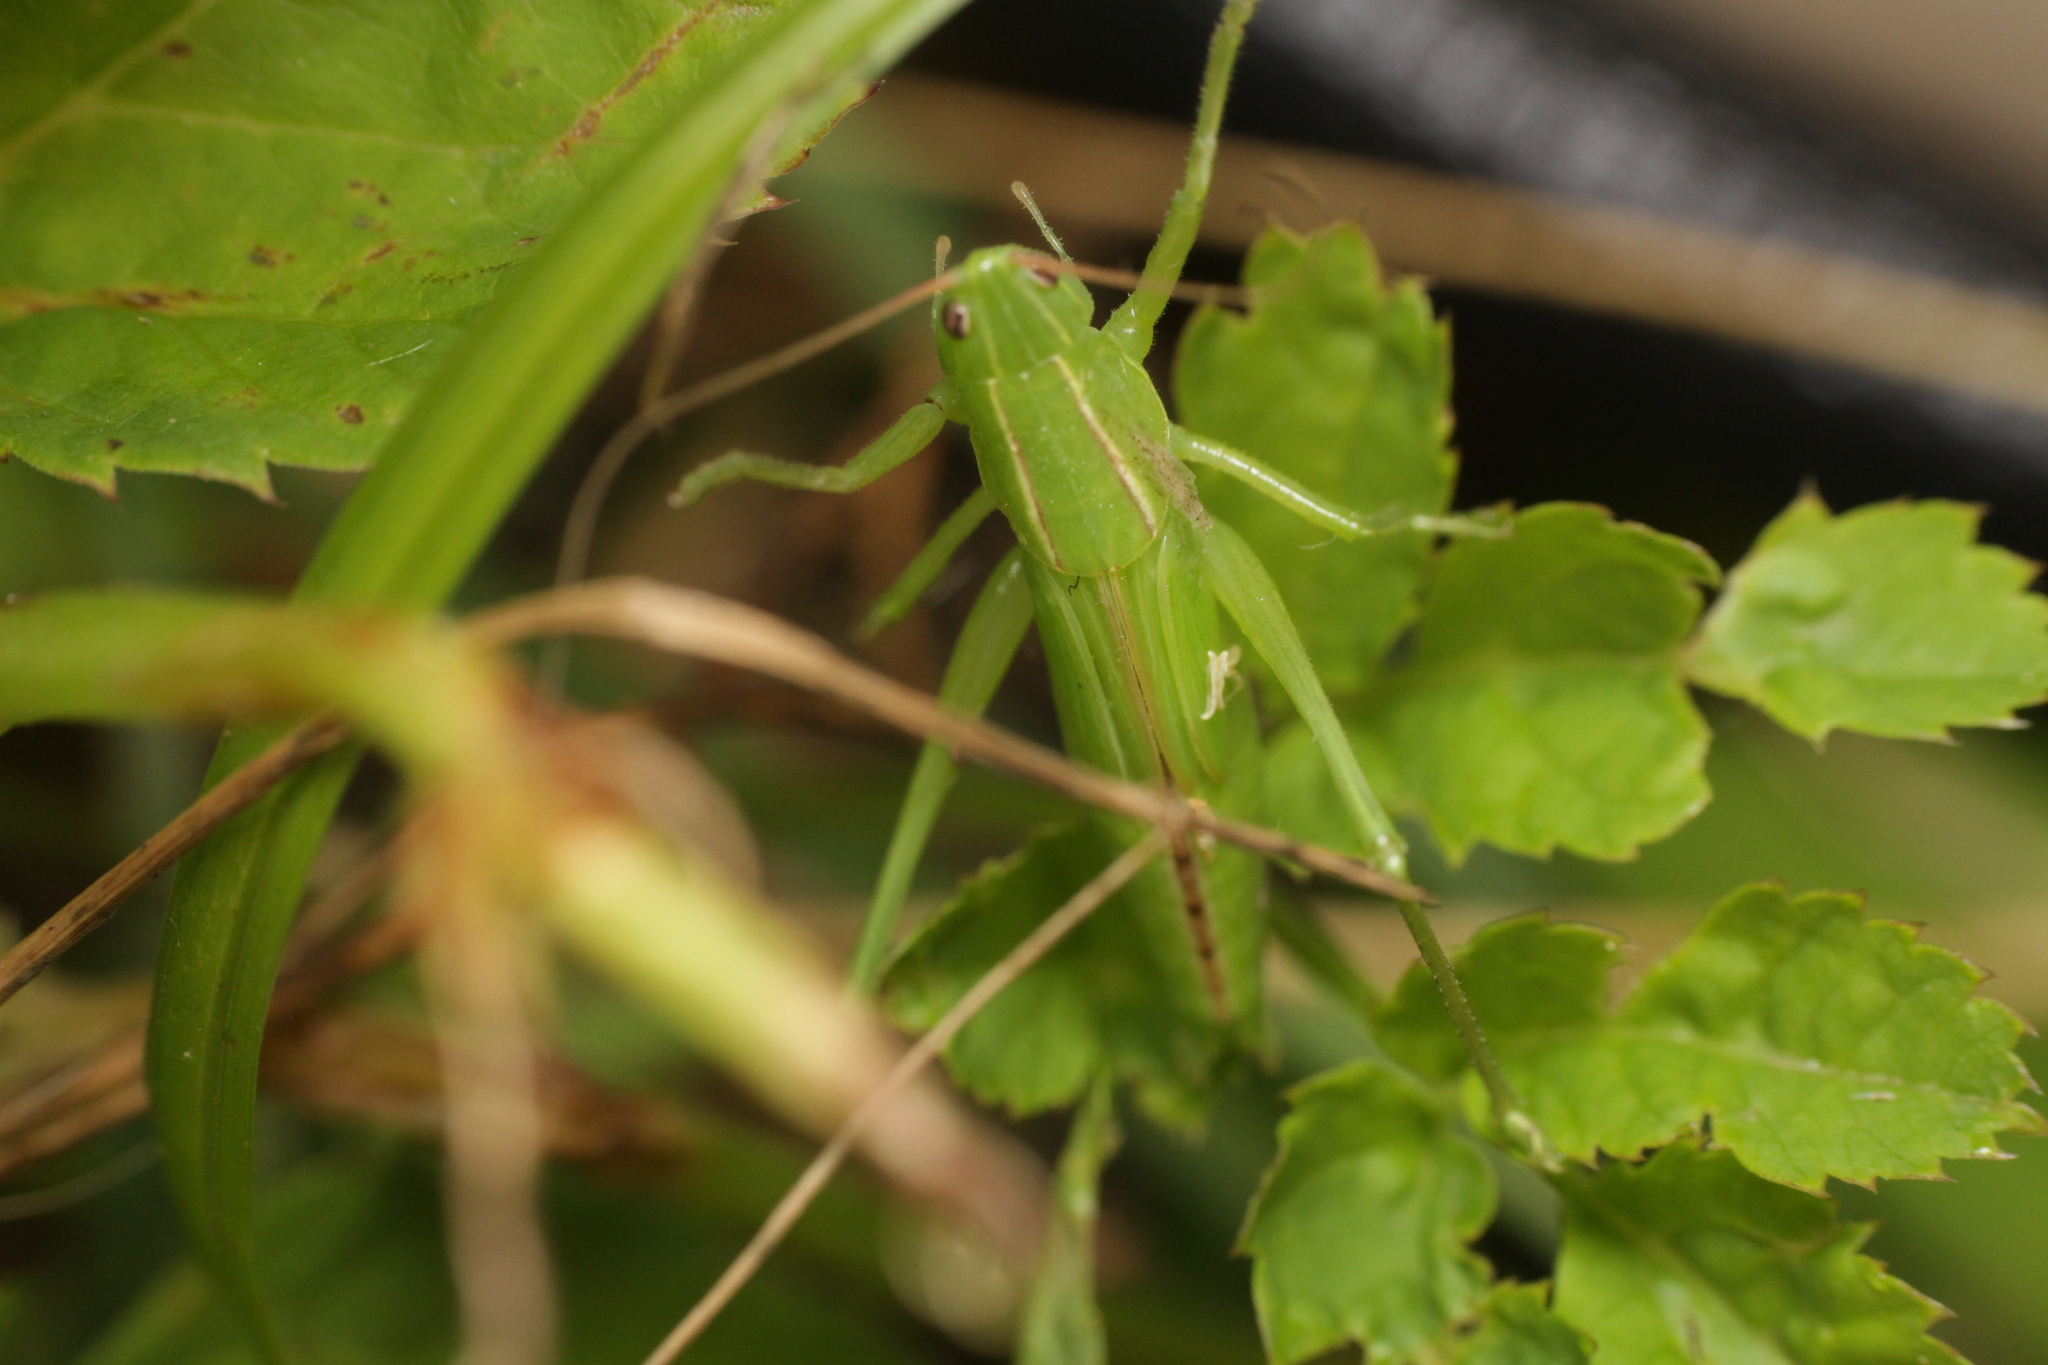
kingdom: Animalia
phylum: Arthropoda
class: Insecta
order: Orthoptera
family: Tettigoniidae
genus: Ruspolia
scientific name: Ruspolia nitidula
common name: Large conehead
